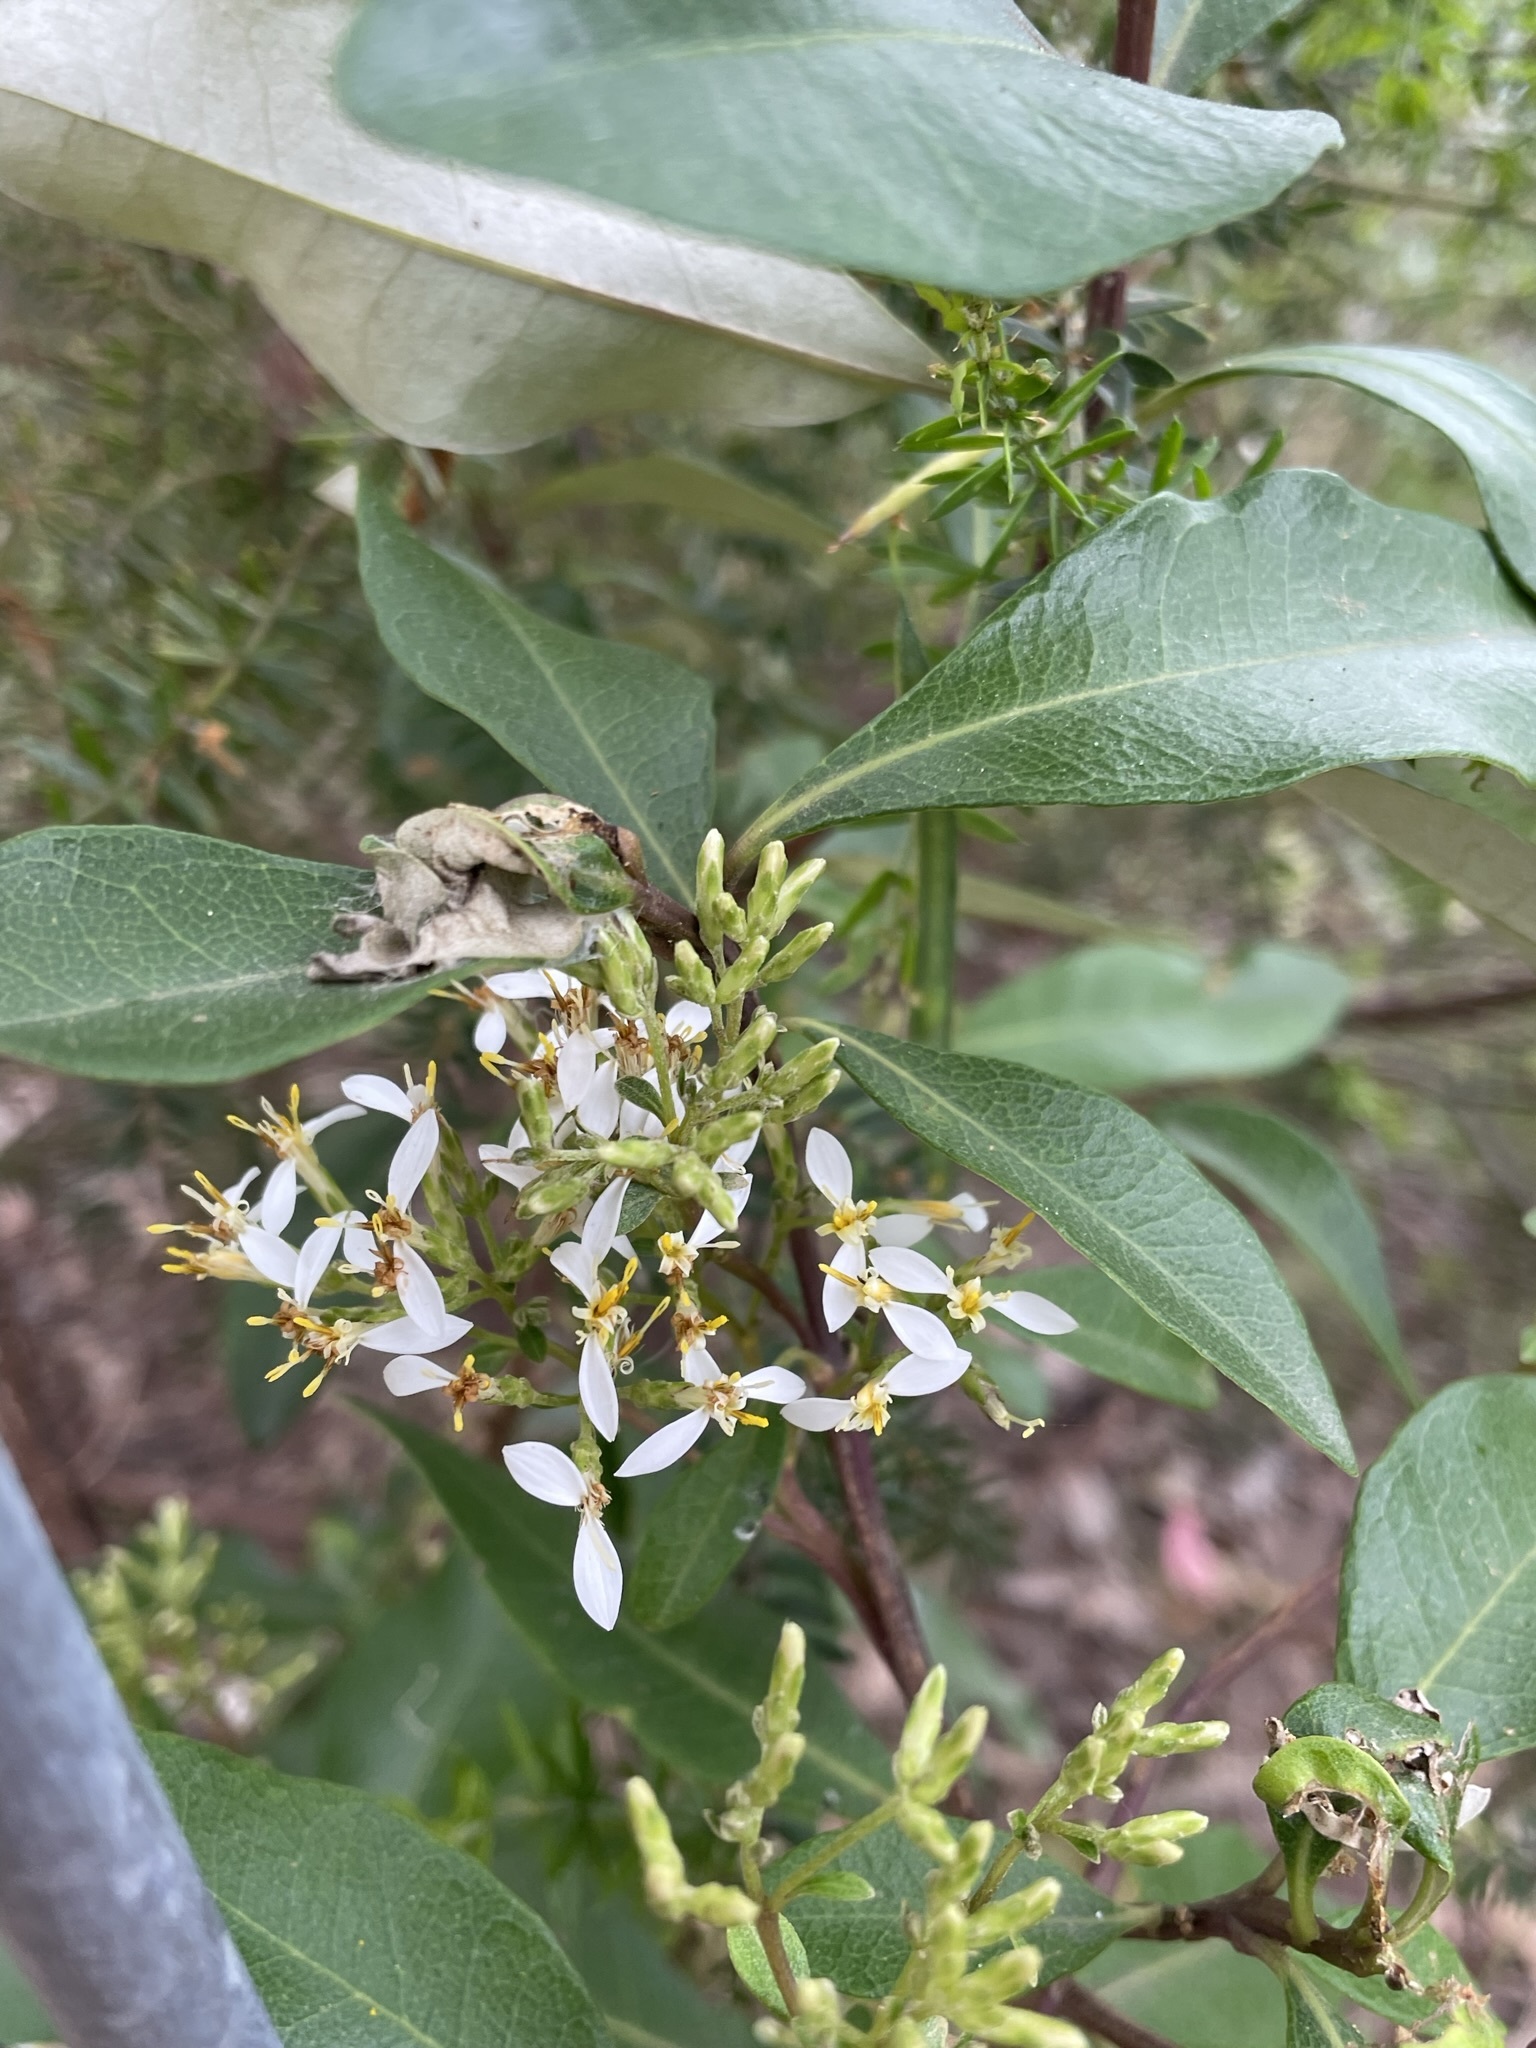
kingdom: Plantae
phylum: Tracheophyta
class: Magnoliopsida
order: Asterales
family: Asteraceae
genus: Olearia
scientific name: Olearia viscosa
